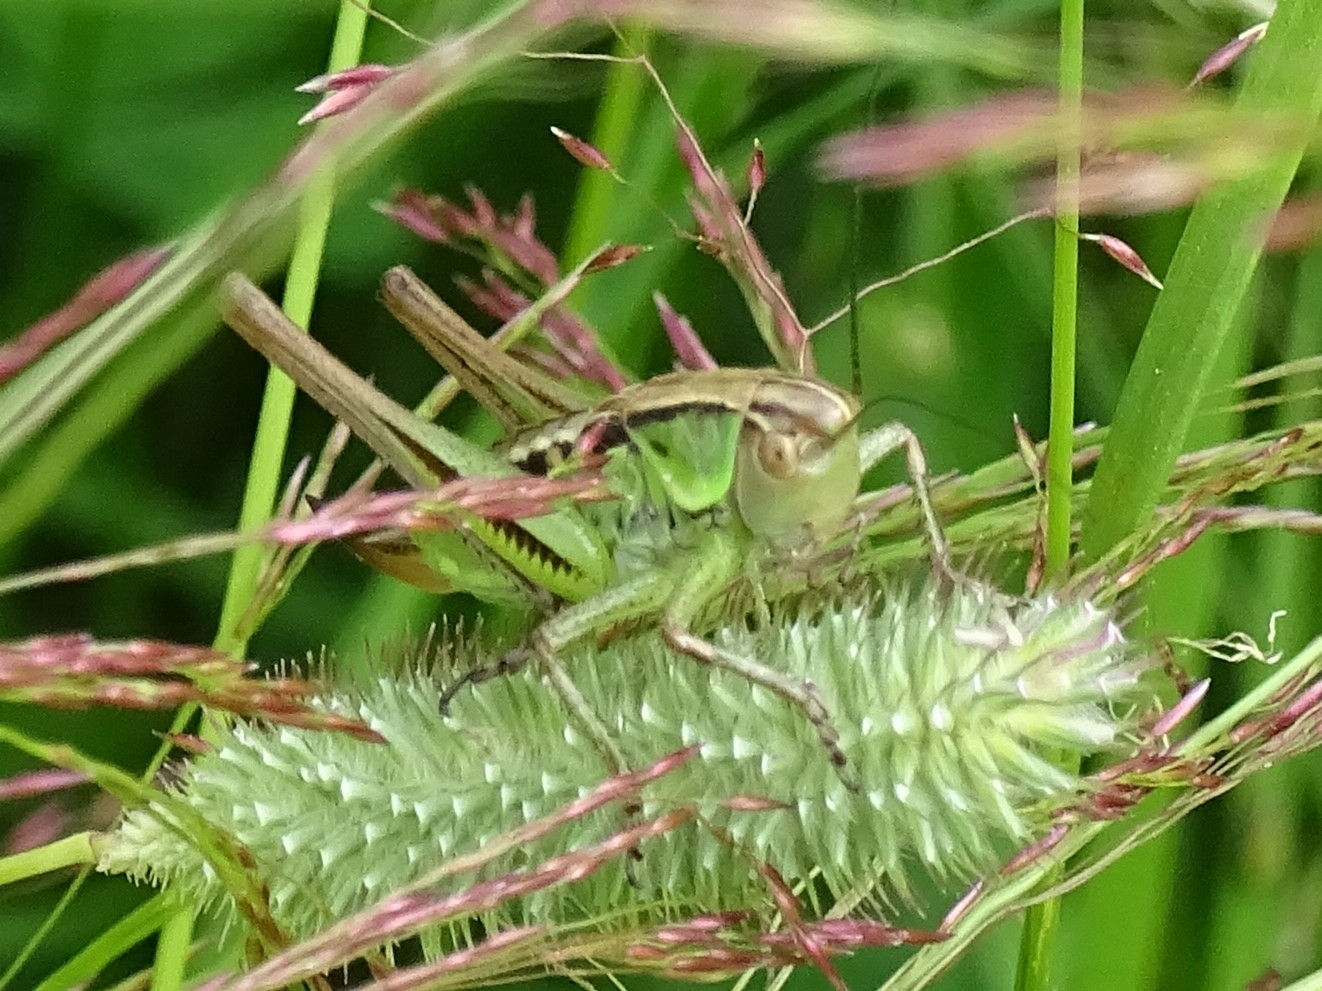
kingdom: Animalia
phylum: Arthropoda
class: Insecta
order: Orthoptera
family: Tettigoniidae
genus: Roeseliana
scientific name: Roeseliana roeselii
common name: Roesel's bush cricket
